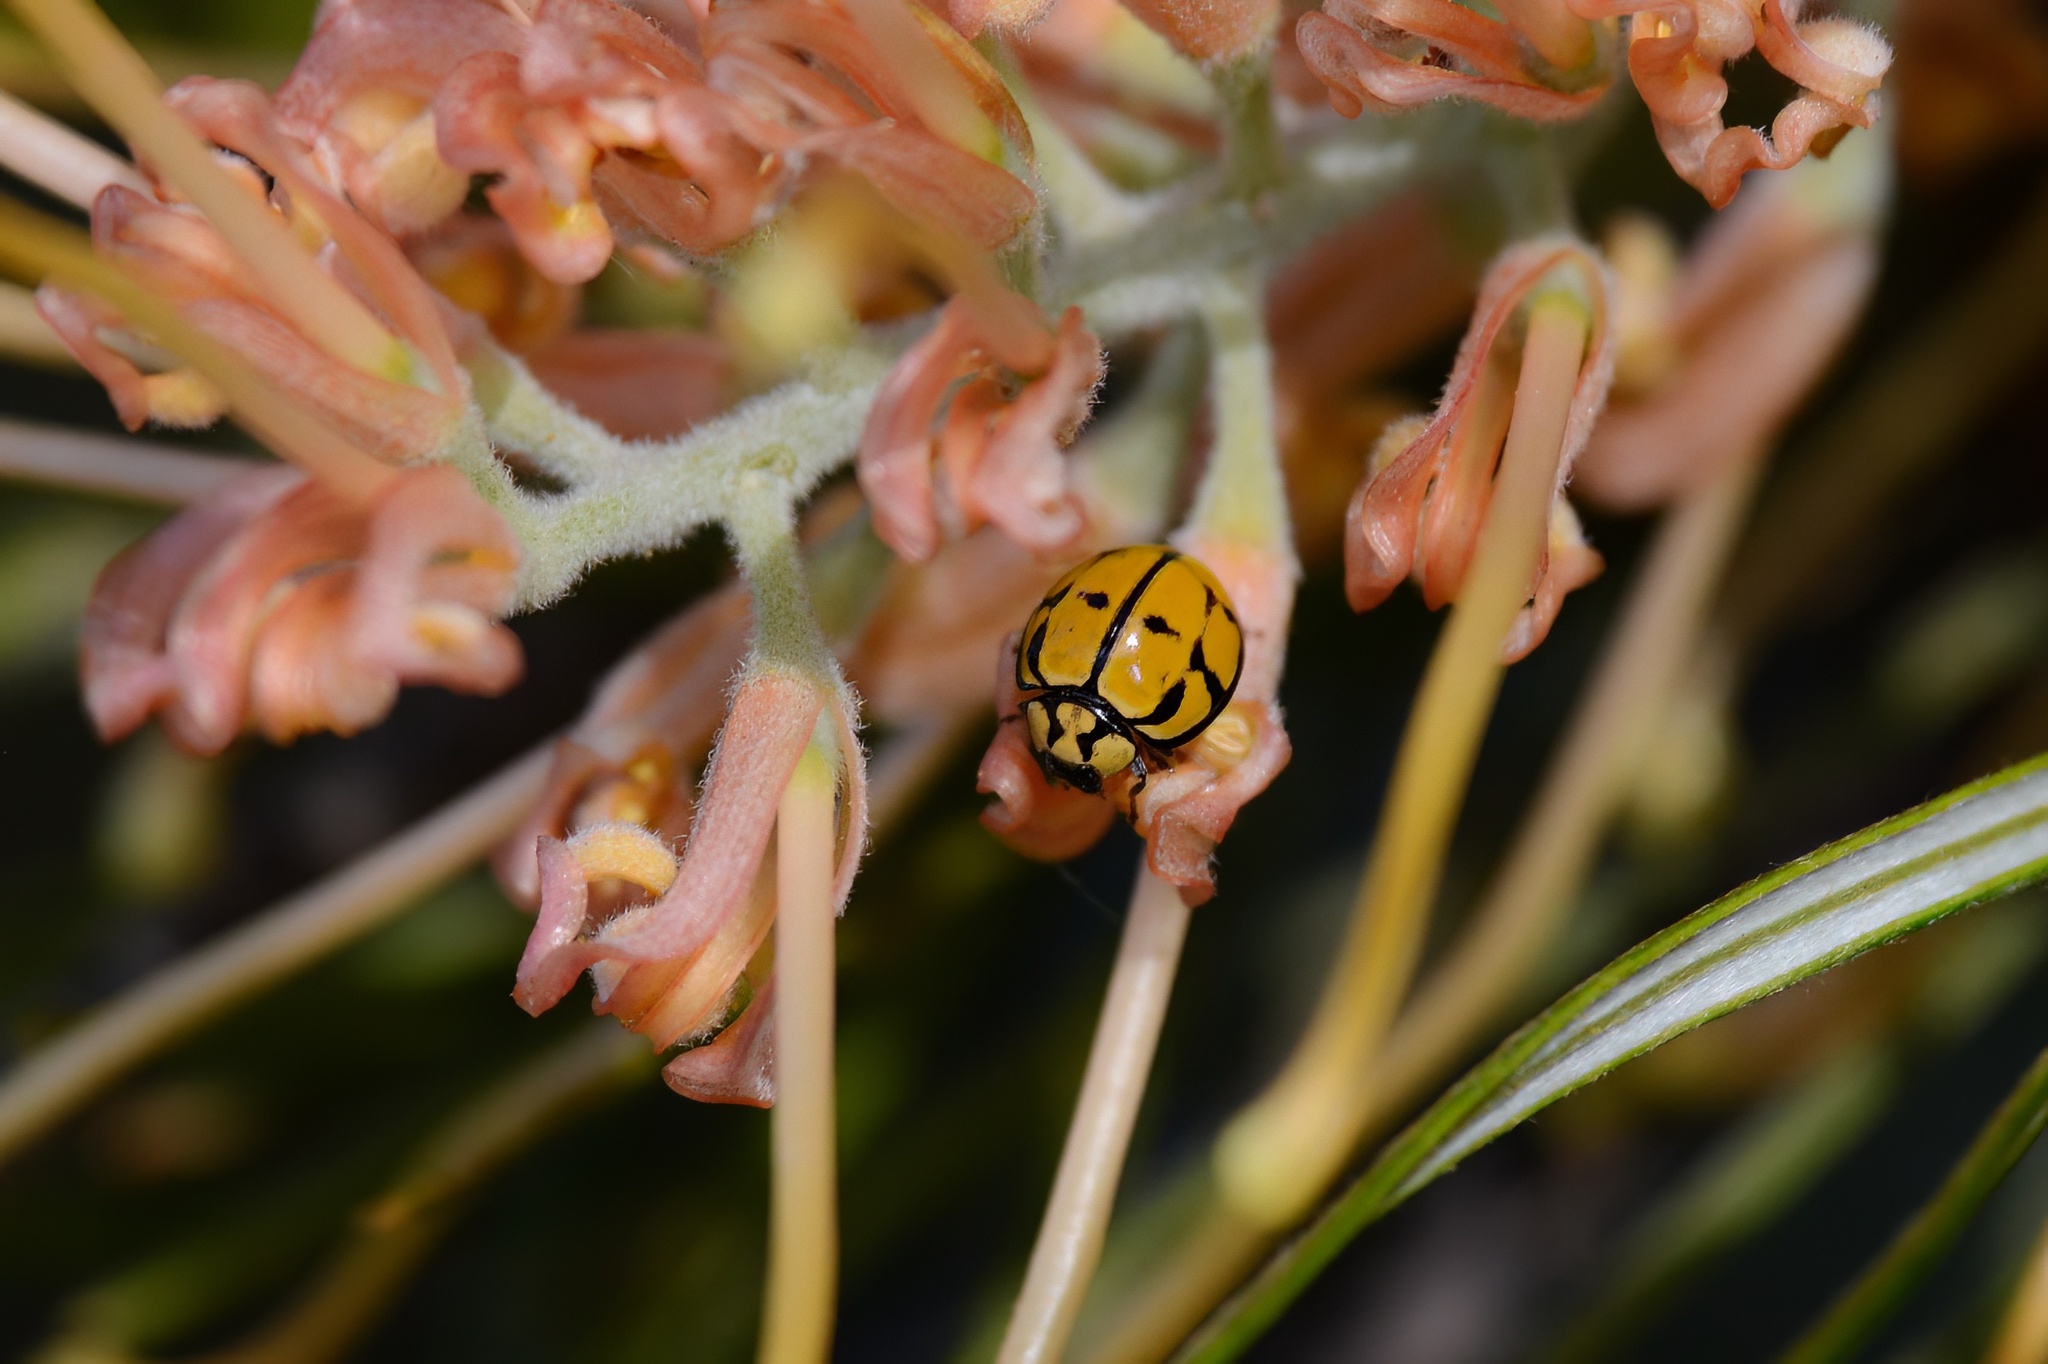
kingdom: Animalia
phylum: Arthropoda
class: Insecta
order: Coleoptera
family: Coccinellidae
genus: Harmonia
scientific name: Harmonia
